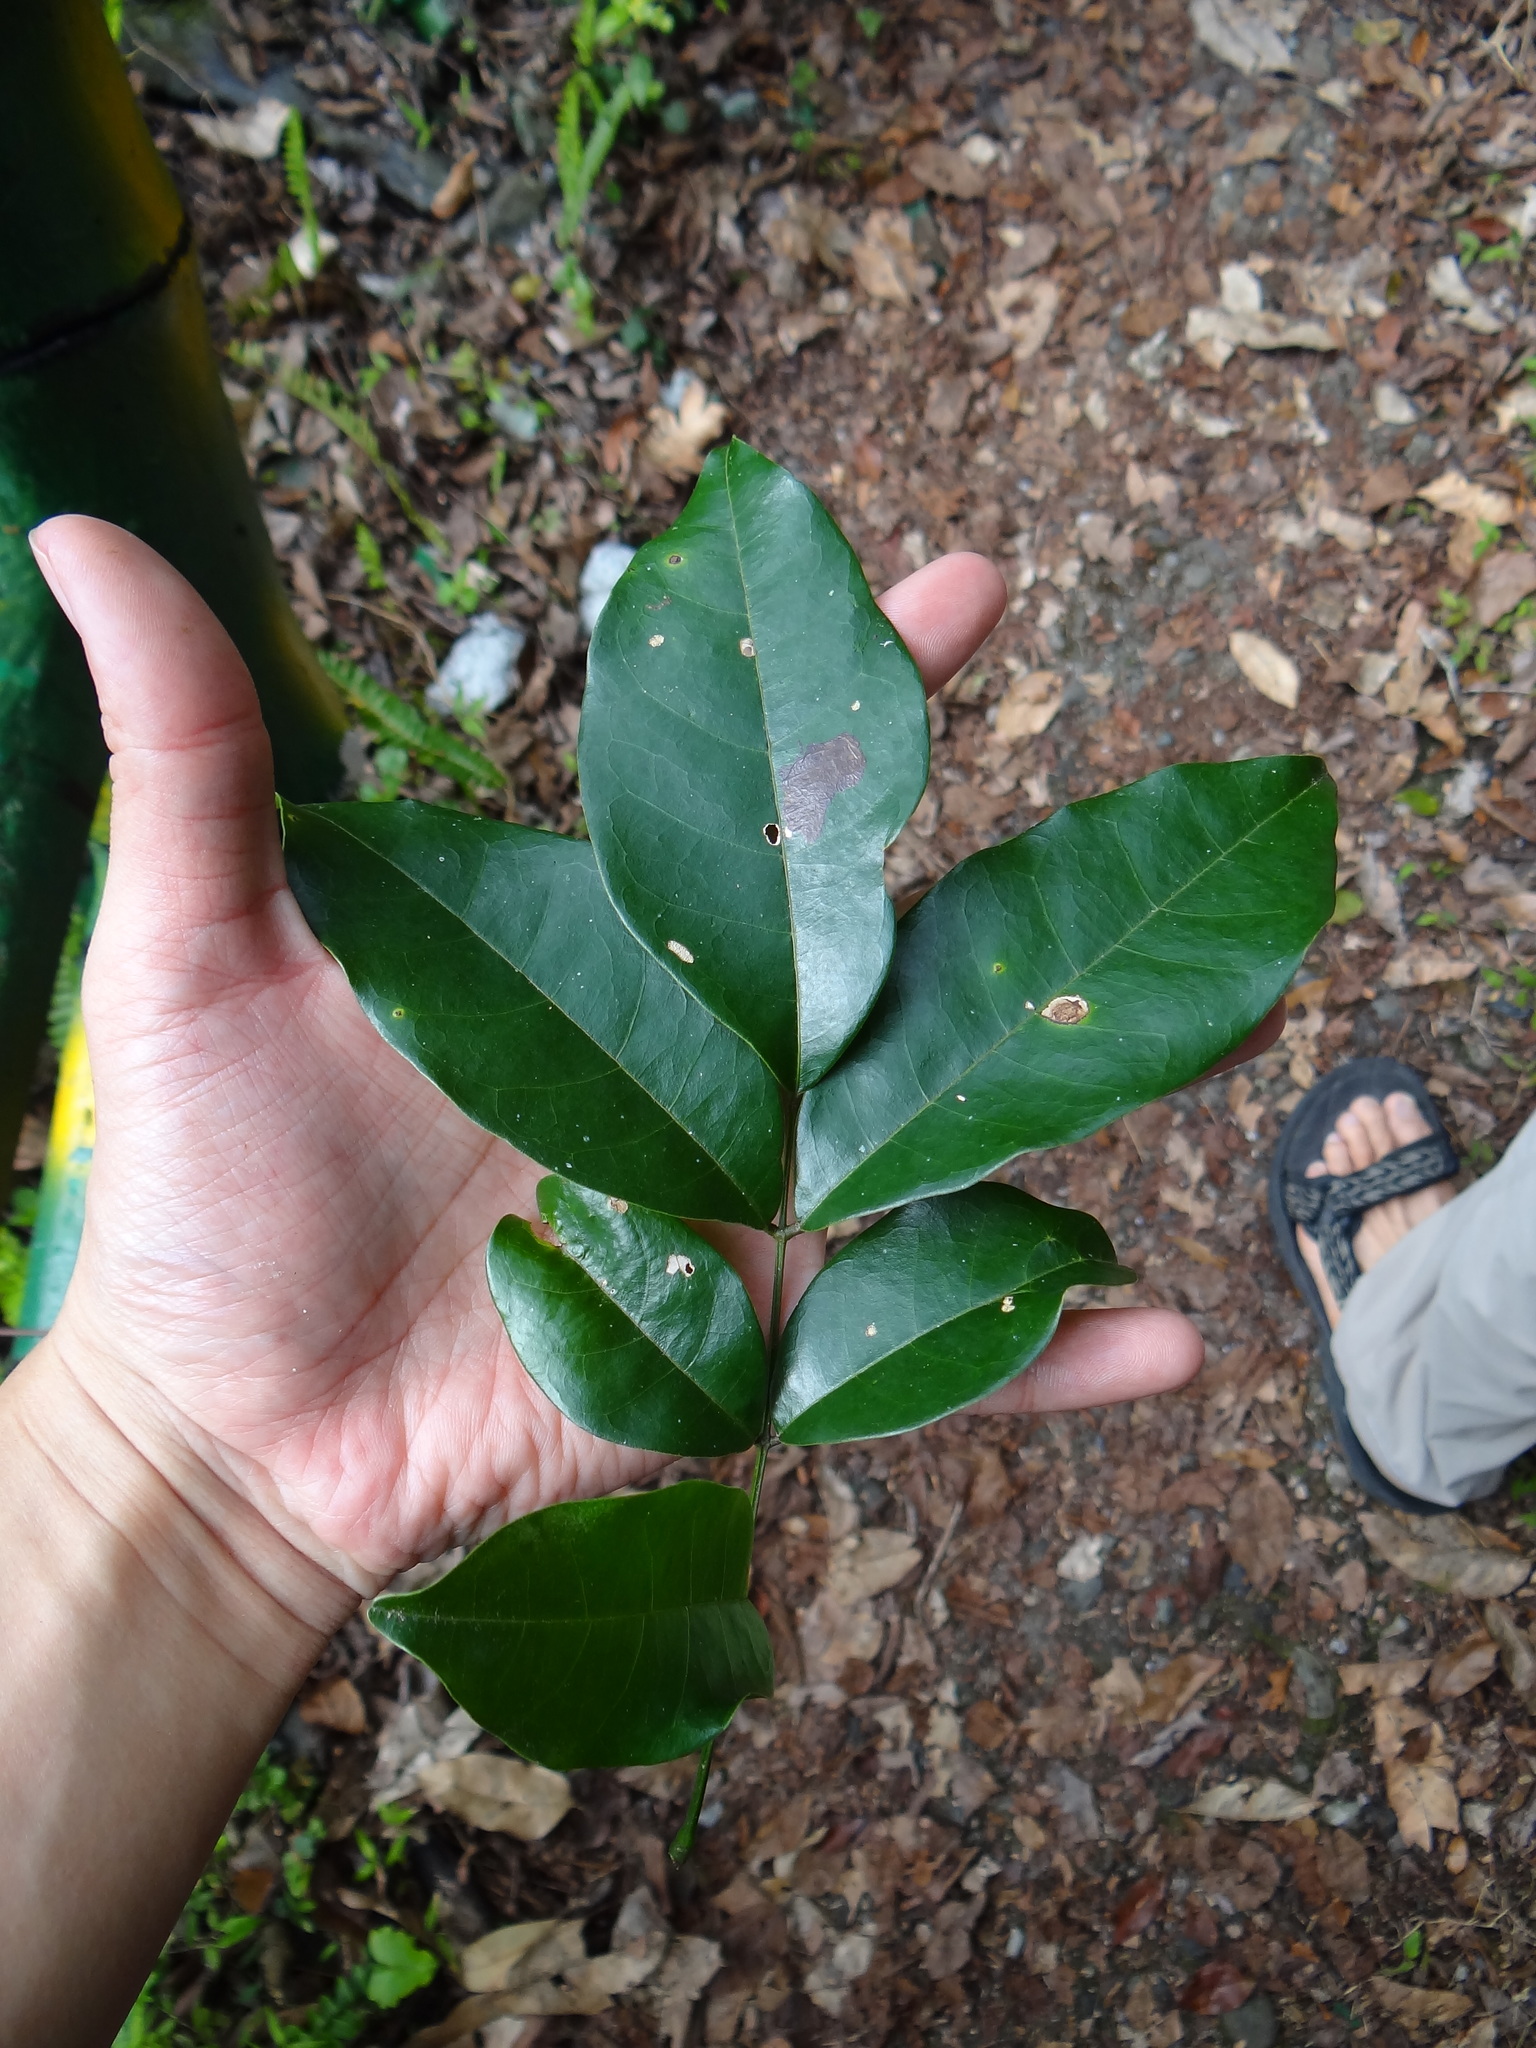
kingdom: Plantae
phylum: Tracheophyta
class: Magnoliopsida
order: Fabales
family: Fabaceae
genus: Derris
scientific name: Derris laxiflora
